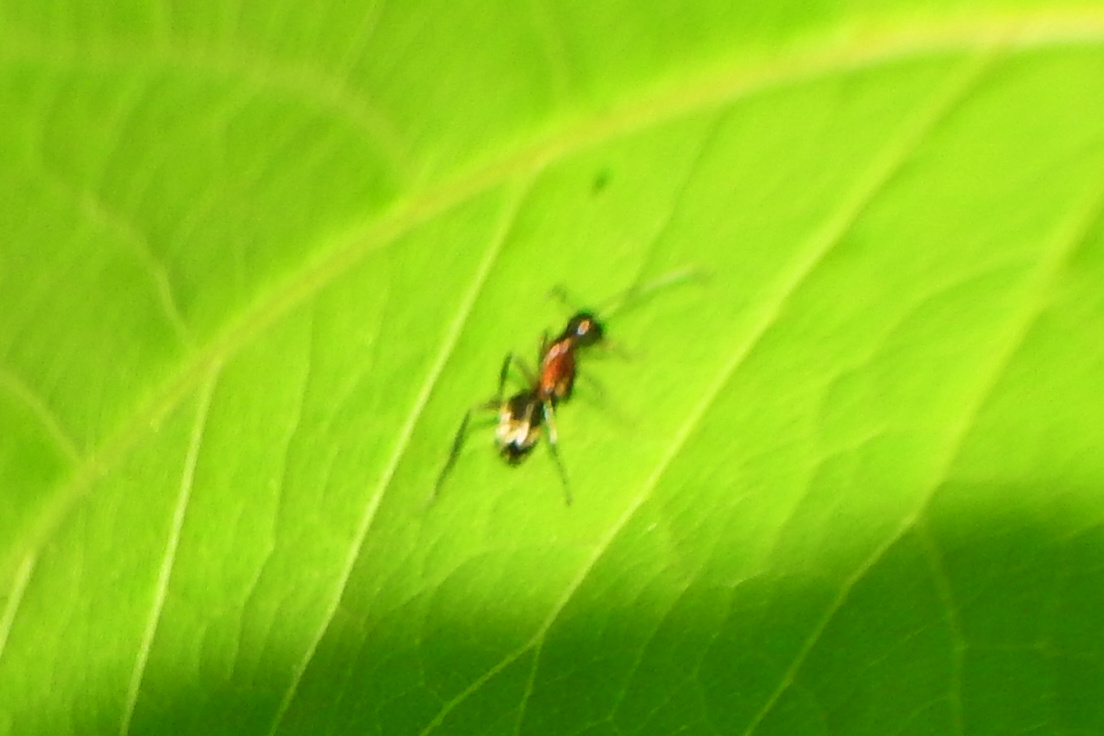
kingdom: Animalia
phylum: Arthropoda
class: Insecta
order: Hymenoptera
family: Formicidae
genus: Camponotus
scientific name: Camponotus chromaiodes
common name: Red carpenter ant
